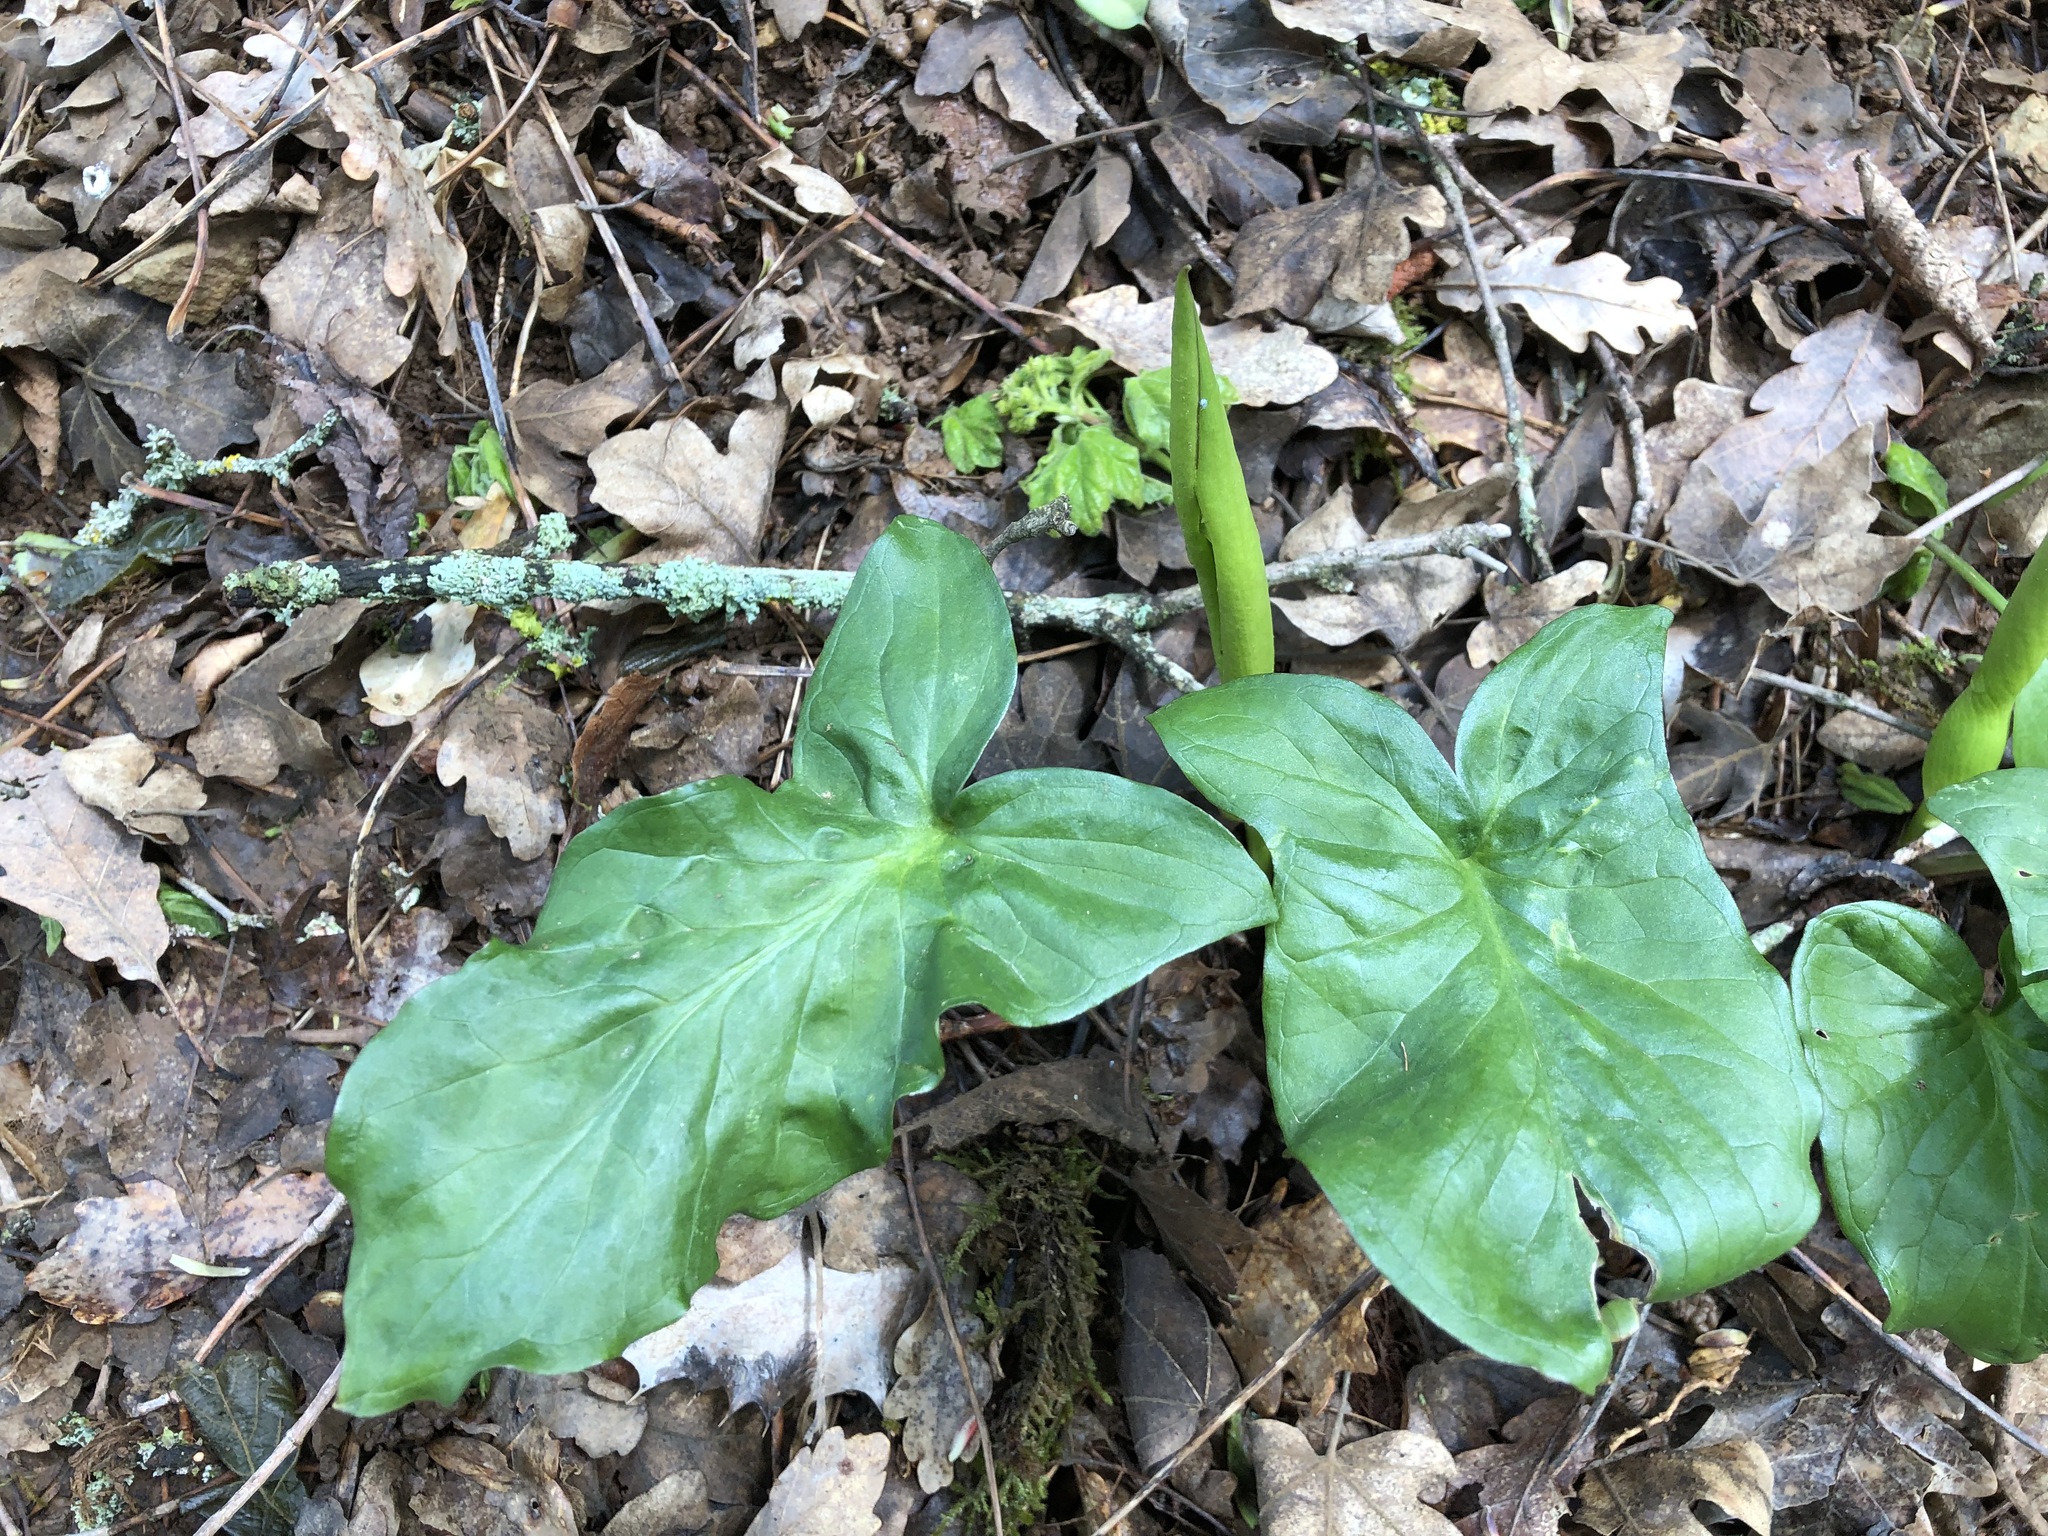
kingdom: Plantae
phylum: Tracheophyta
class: Liliopsida
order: Alismatales
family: Araceae
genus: Arum
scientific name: Arum maculatum
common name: Lords-and-ladies
